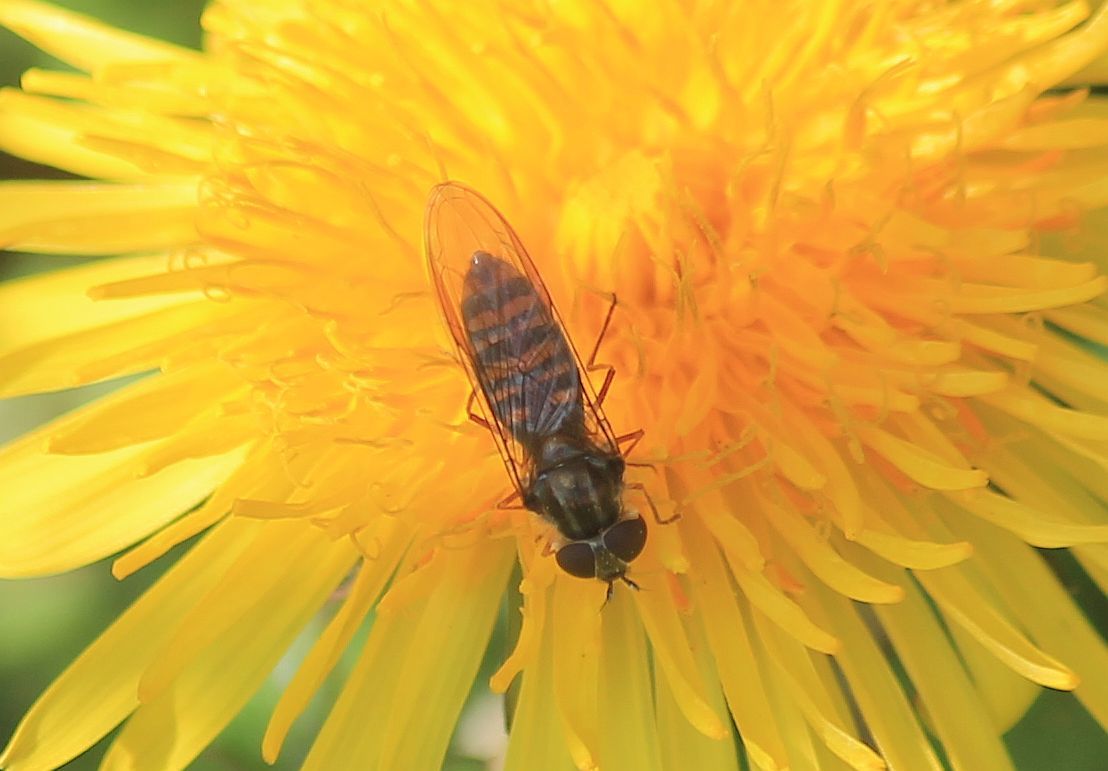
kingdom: Animalia
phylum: Arthropoda
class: Insecta
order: Diptera
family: Syrphidae
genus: Episyrphus
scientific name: Episyrphus balteatus
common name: Marmalade hoverfly
